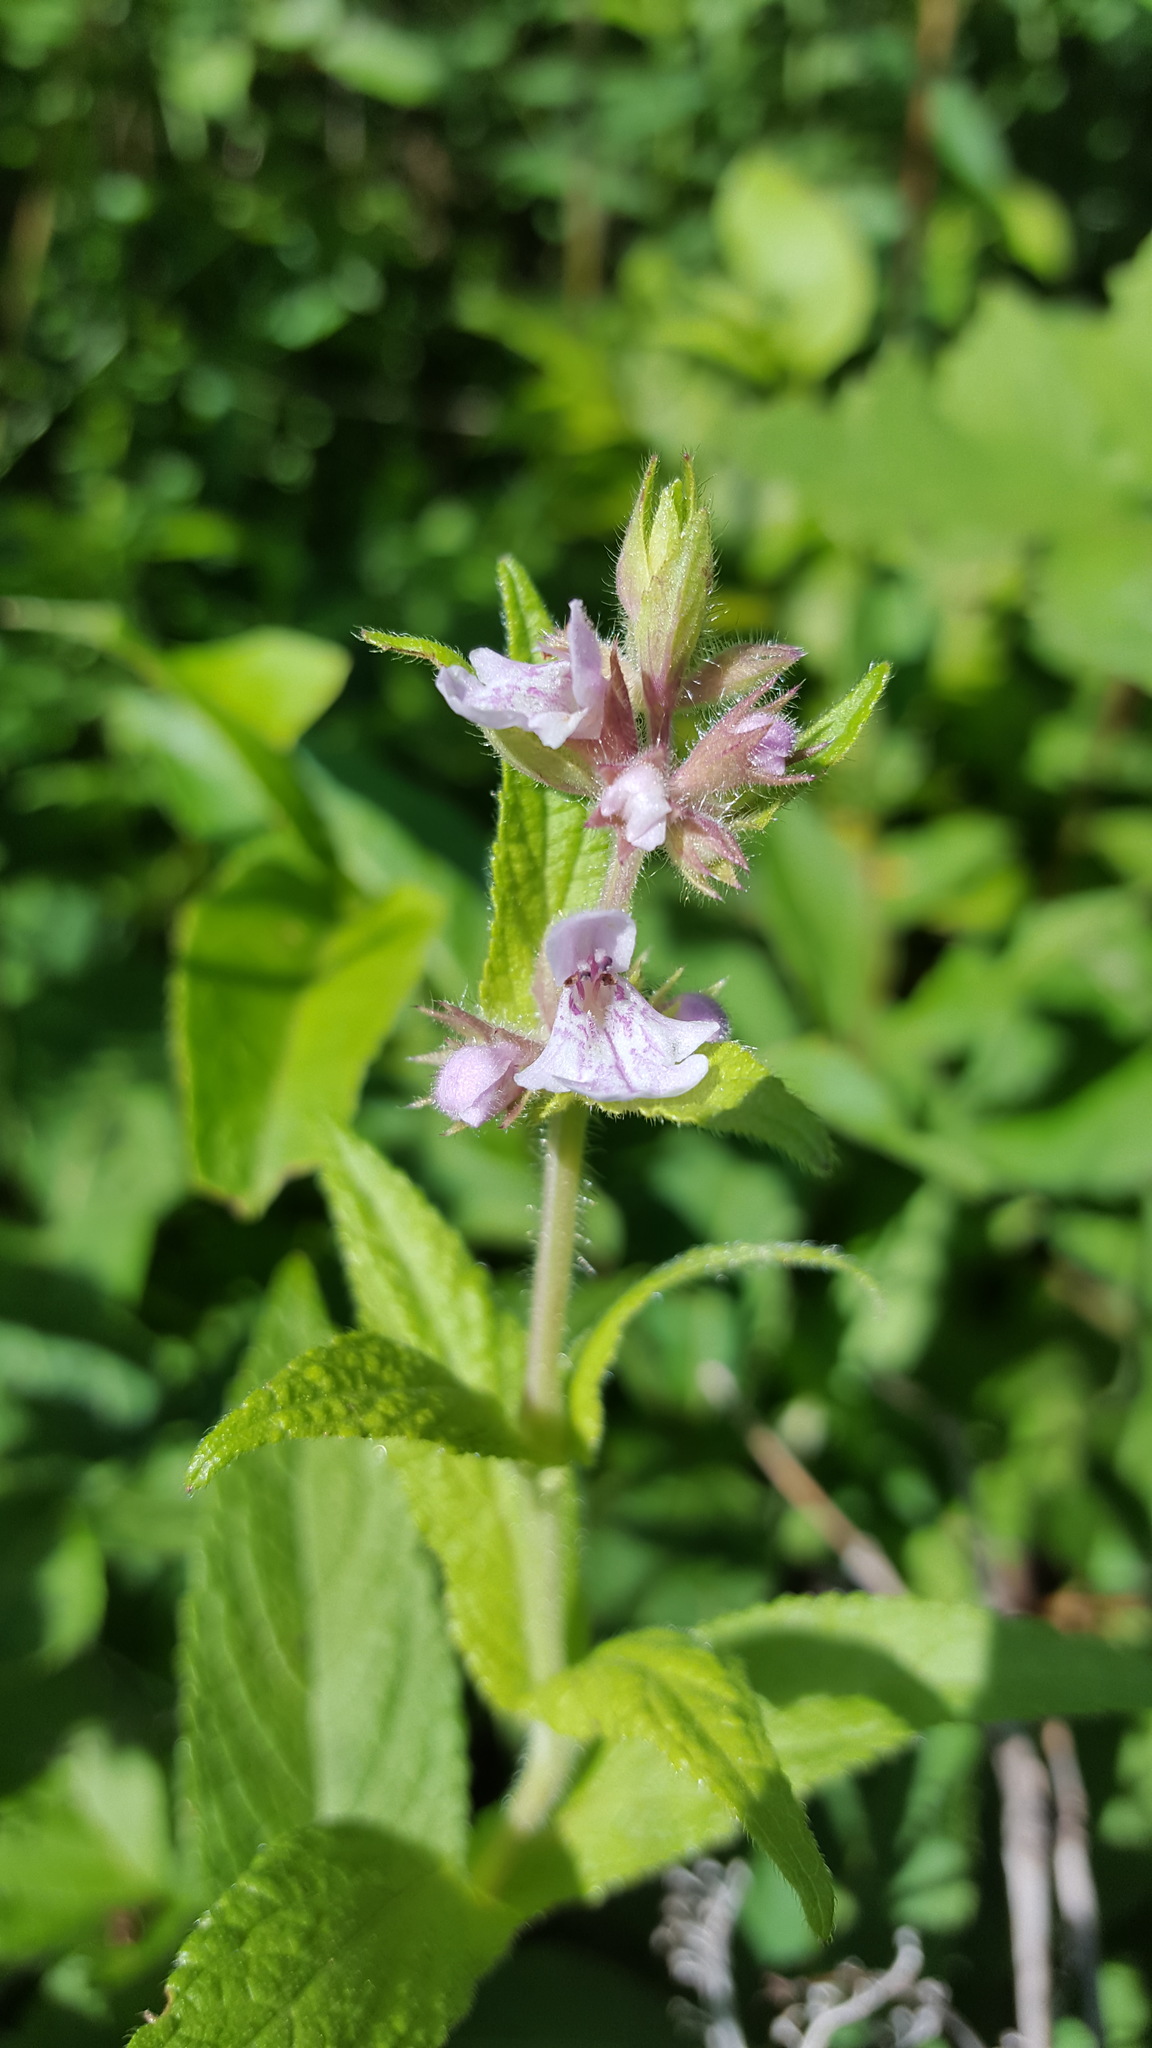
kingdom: Plantae
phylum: Tracheophyta
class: Magnoliopsida
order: Lamiales
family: Lamiaceae
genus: Stachys
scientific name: Stachys palustris
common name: Marsh woundwort
